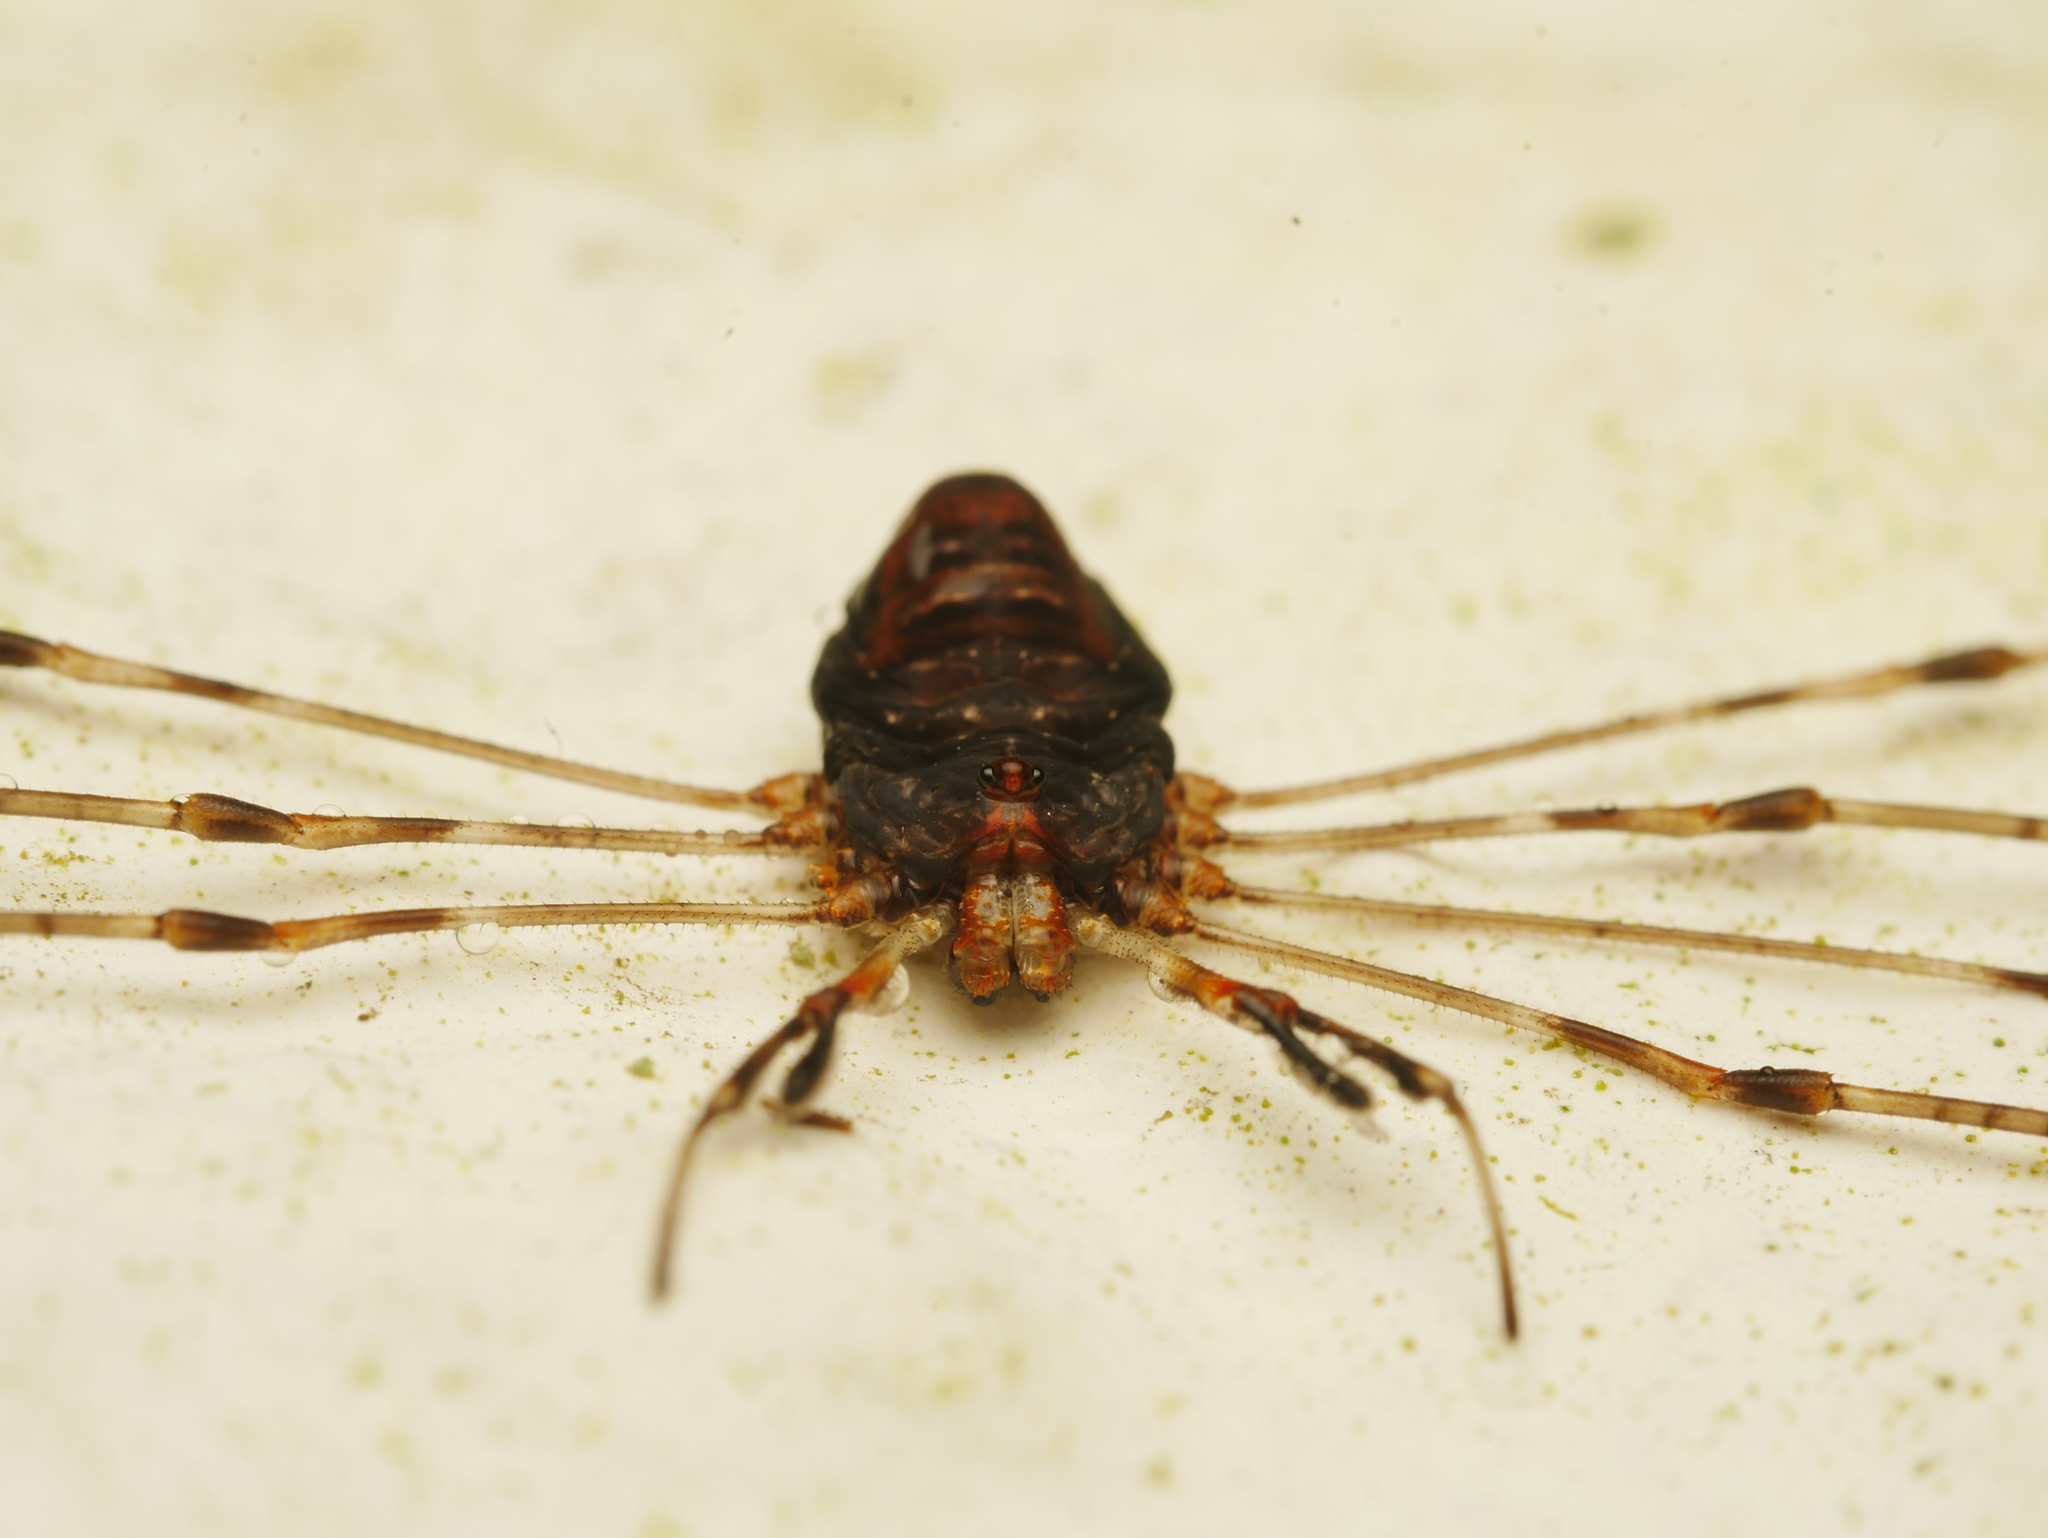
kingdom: Animalia
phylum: Arthropoda
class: Arachnida
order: Opiliones
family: Phalangiidae
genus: Dicranopalpus
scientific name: Dicranopalpus ramosus
